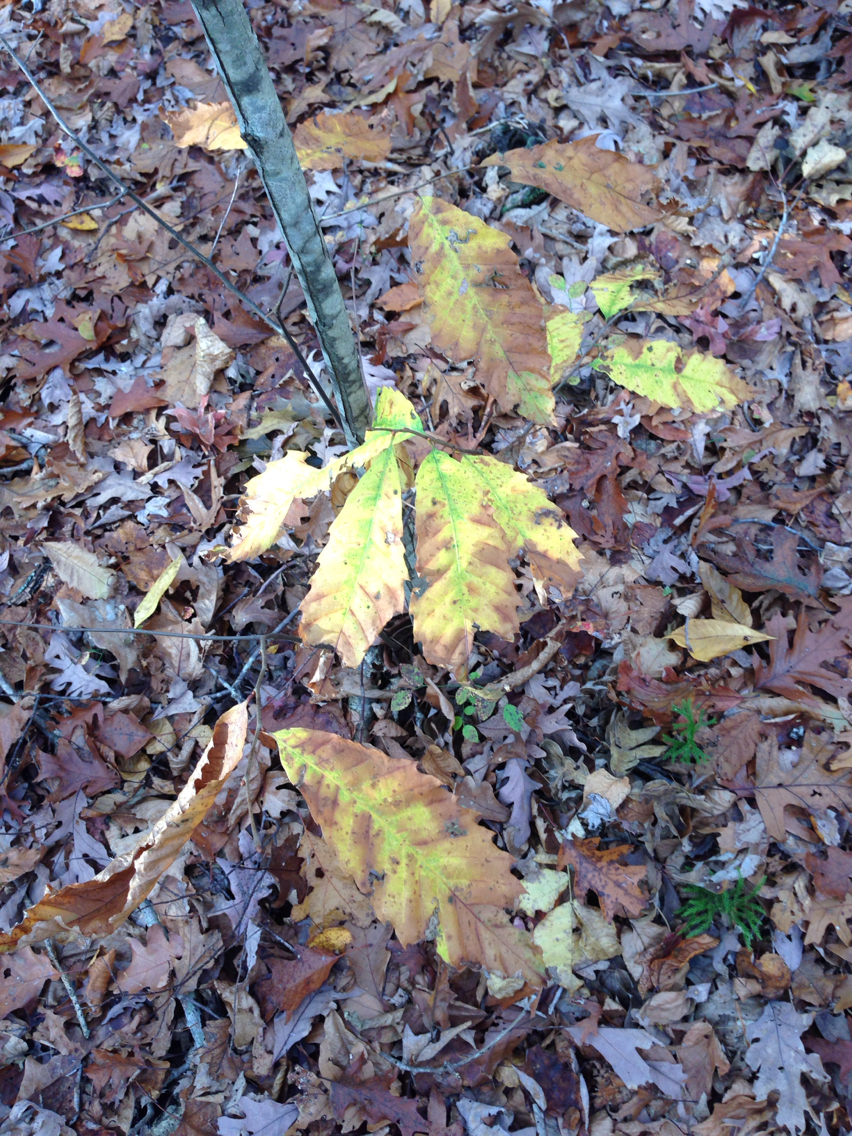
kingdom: Plantae
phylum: Tracheophyta
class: Magnoliopsida
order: Fagales
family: Fagaceae
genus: Castanea
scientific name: Castanea dentata
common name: American chestnut
